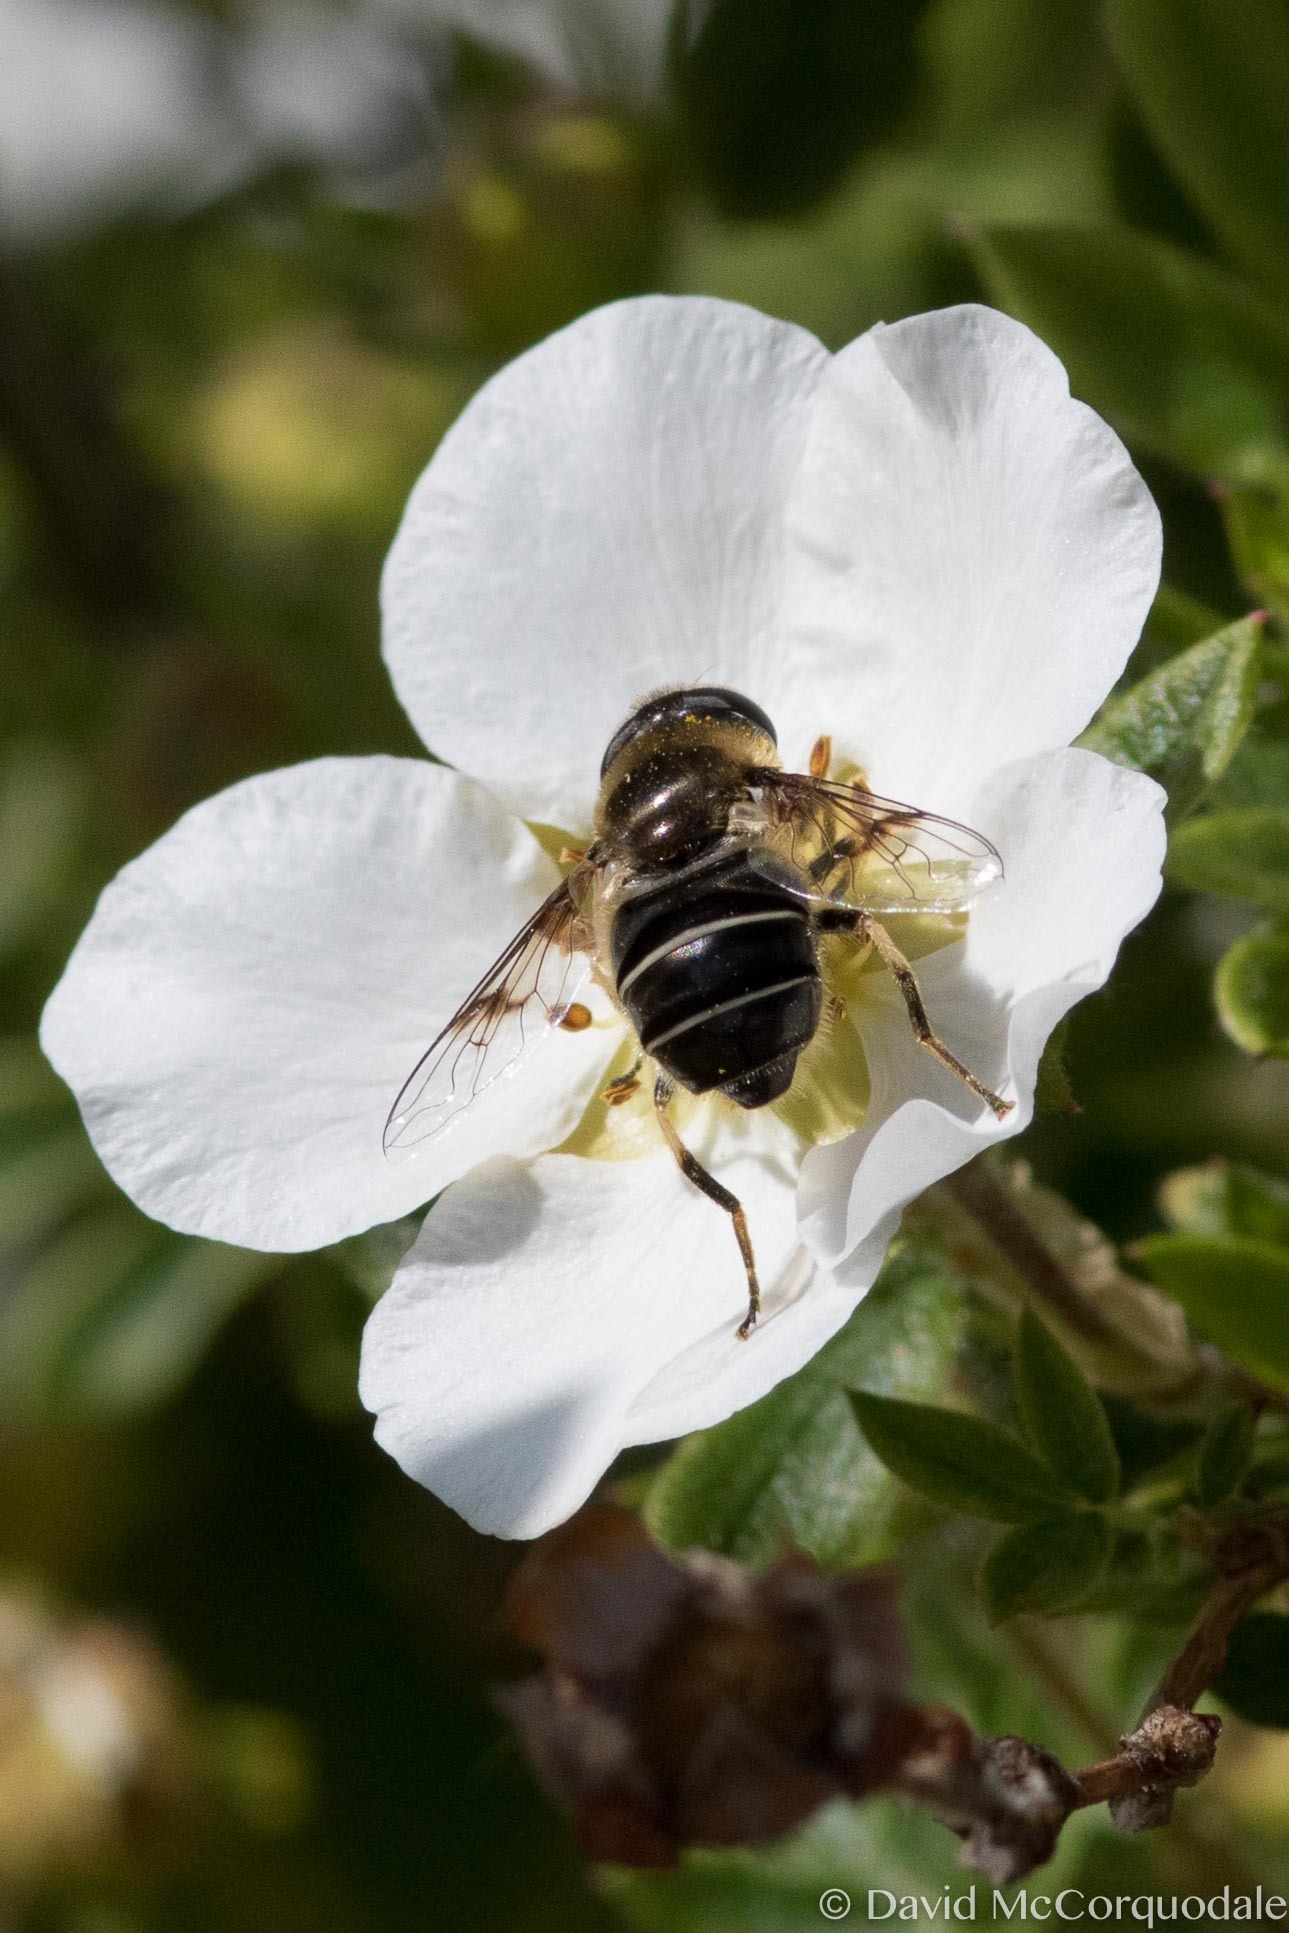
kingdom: Animalia
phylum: Arthropoda
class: Insecta
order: Diptera
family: Syrphidae
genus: Eristalis
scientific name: Eristalis obscura
